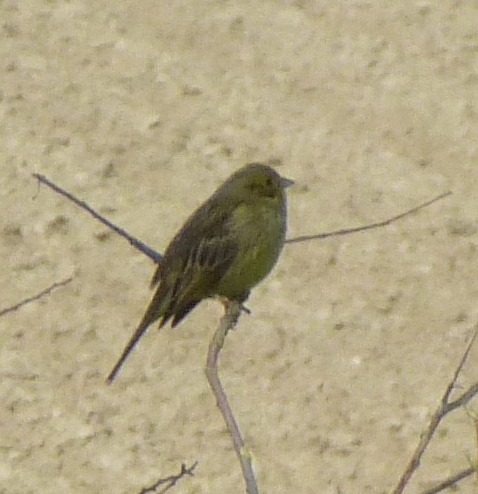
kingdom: Animalia
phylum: Chordata
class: Aves
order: Passeriformes
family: Emberizidae
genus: Emberiza
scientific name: Emberiza citrinella
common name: Yellowhammer
